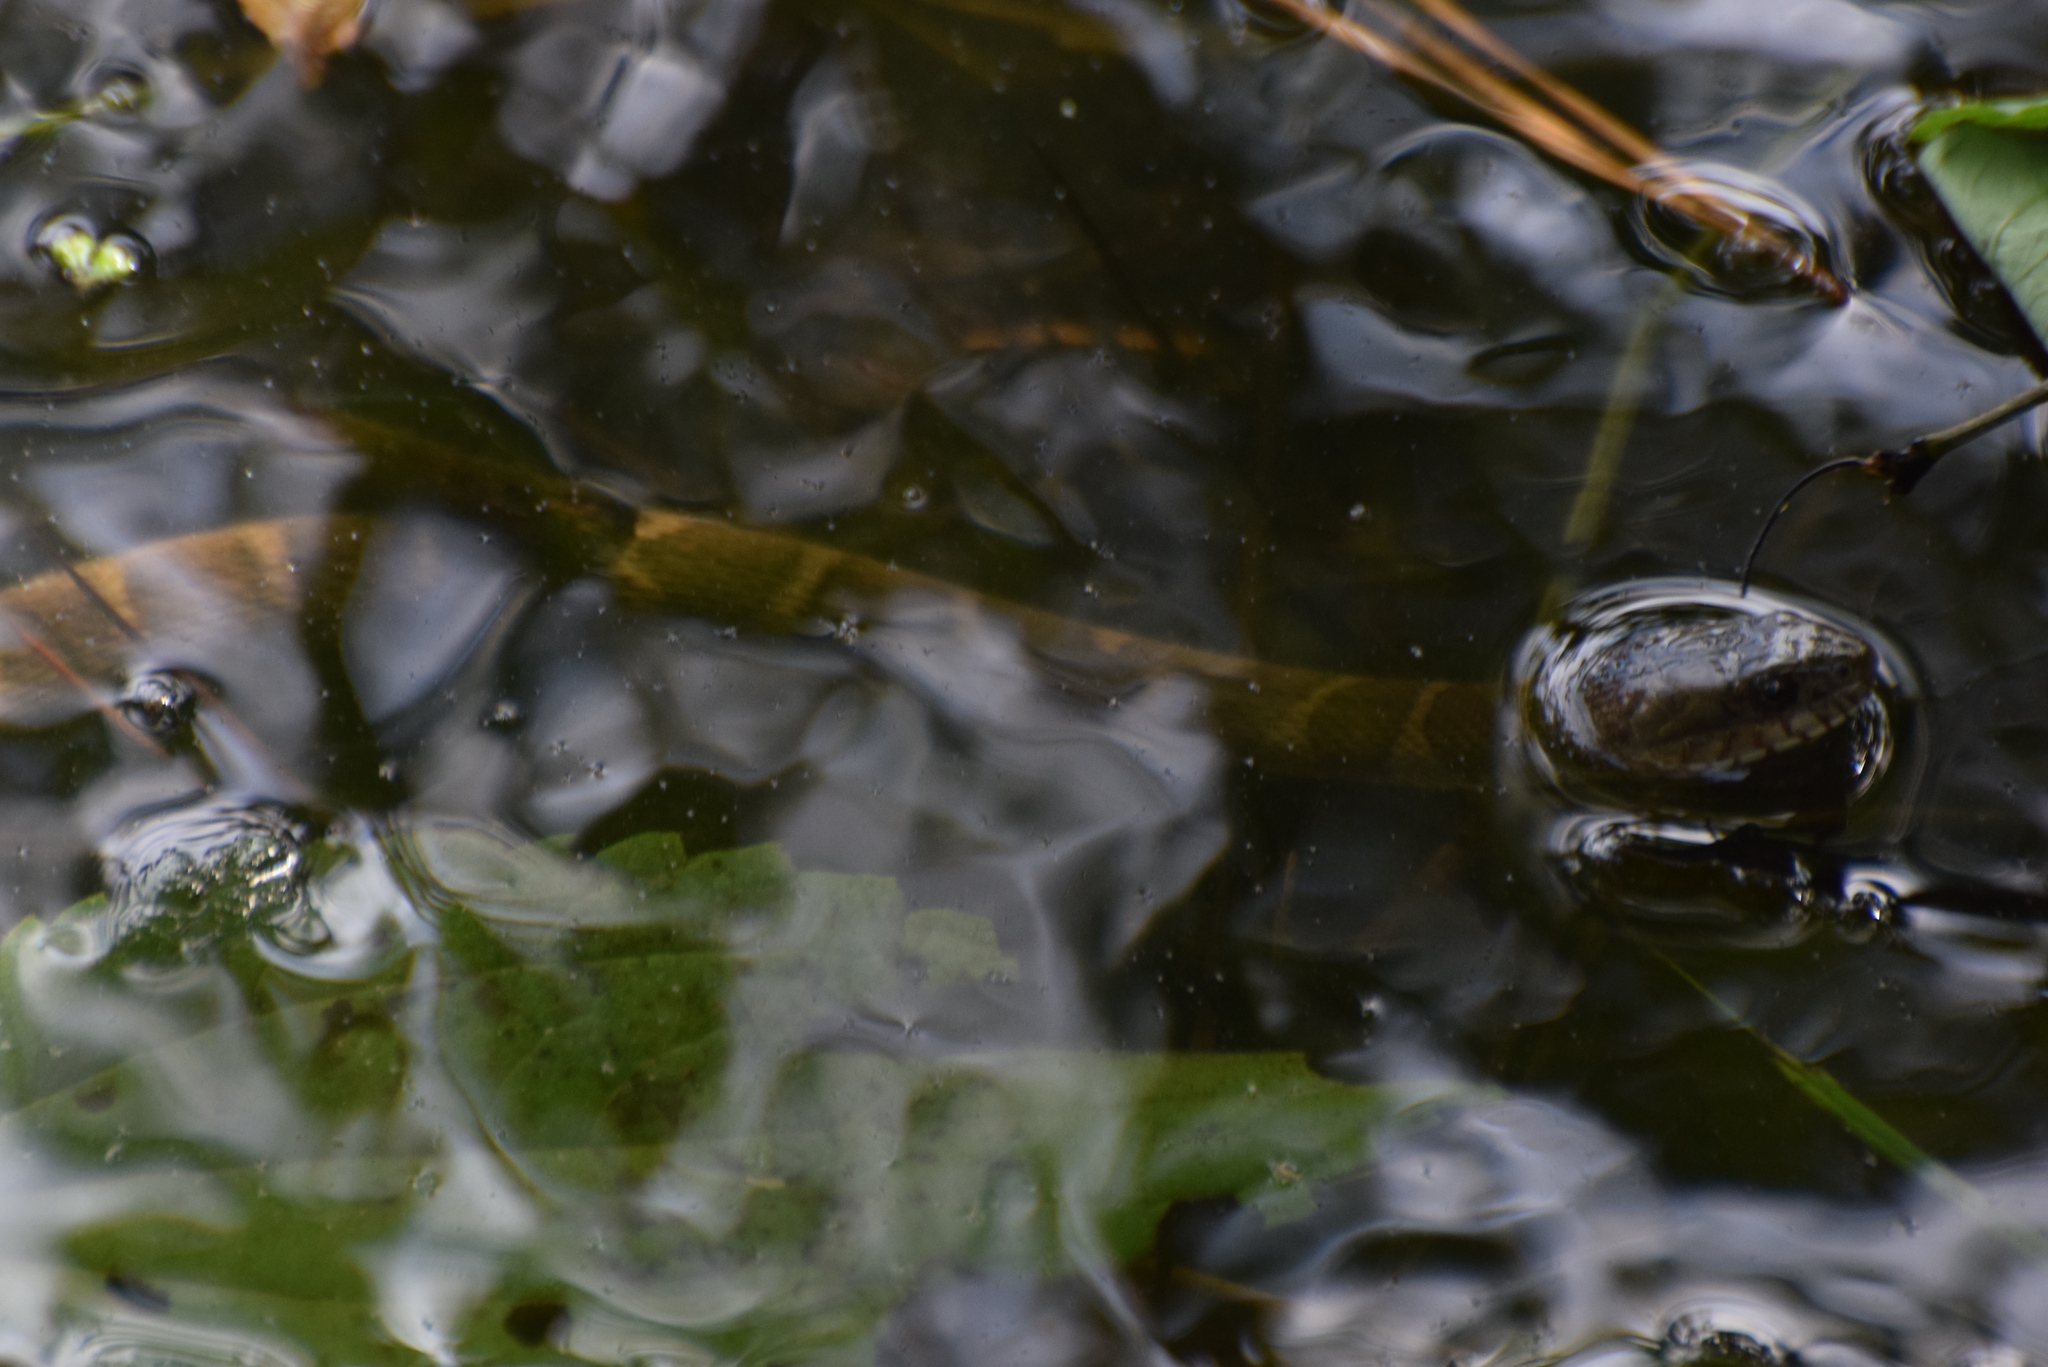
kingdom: Animalia
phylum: Chordata
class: Squamata
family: Colubridae
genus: Nerodia
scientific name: Nerodia sipedon
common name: Northern water snake
